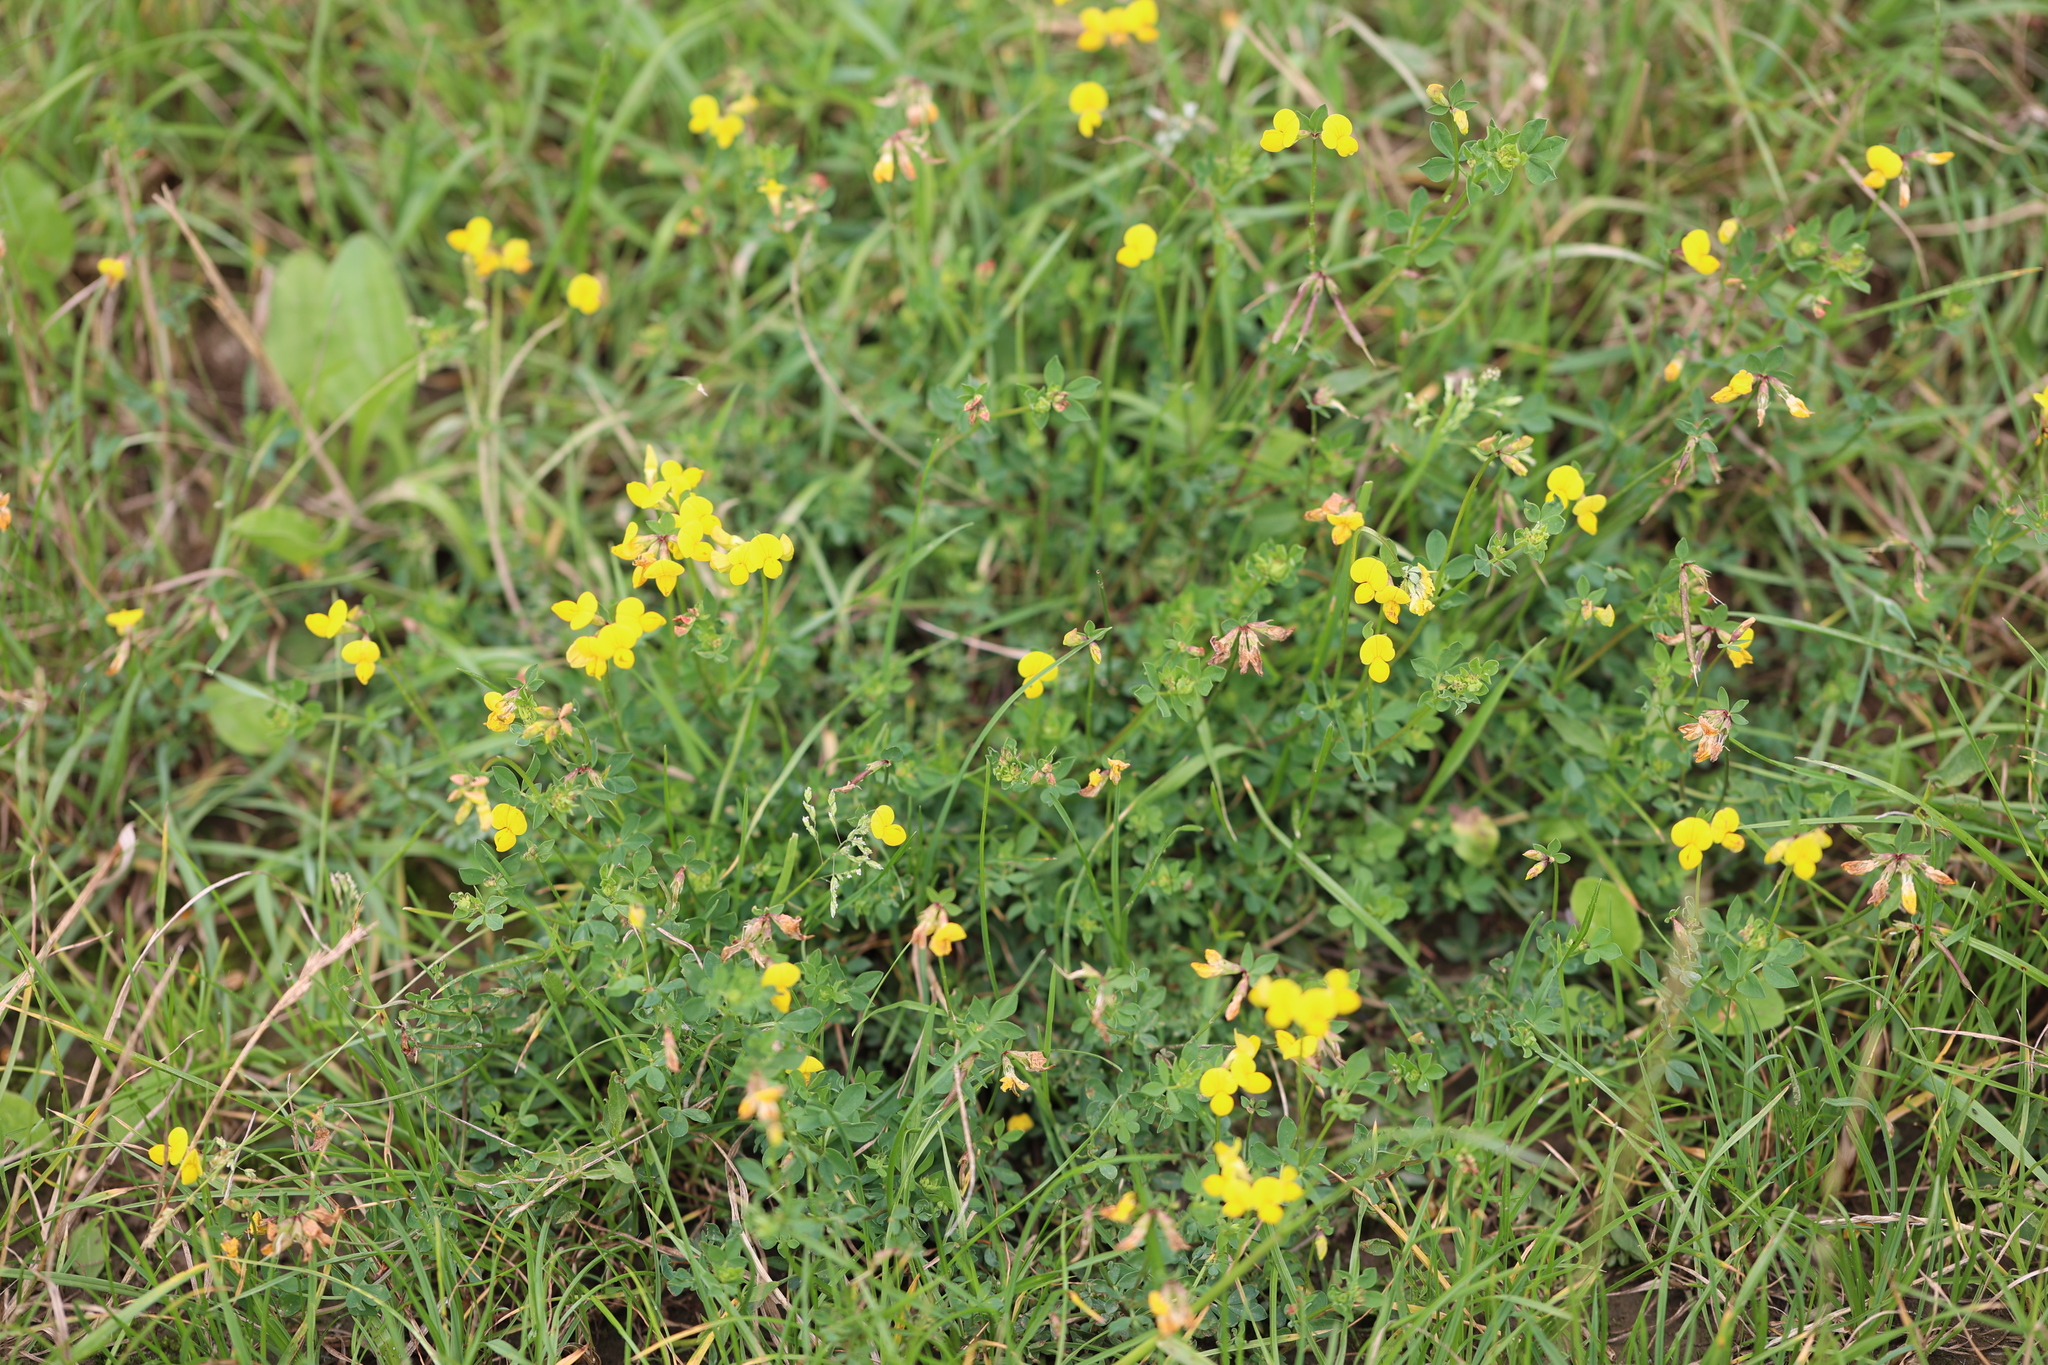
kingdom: Plantae
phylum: Tracheophyta
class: Magnoliopsida
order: Fabales
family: Fabaceae
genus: Lotus
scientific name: Lotus corniculatus
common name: Common bird's-foot-trefoil
